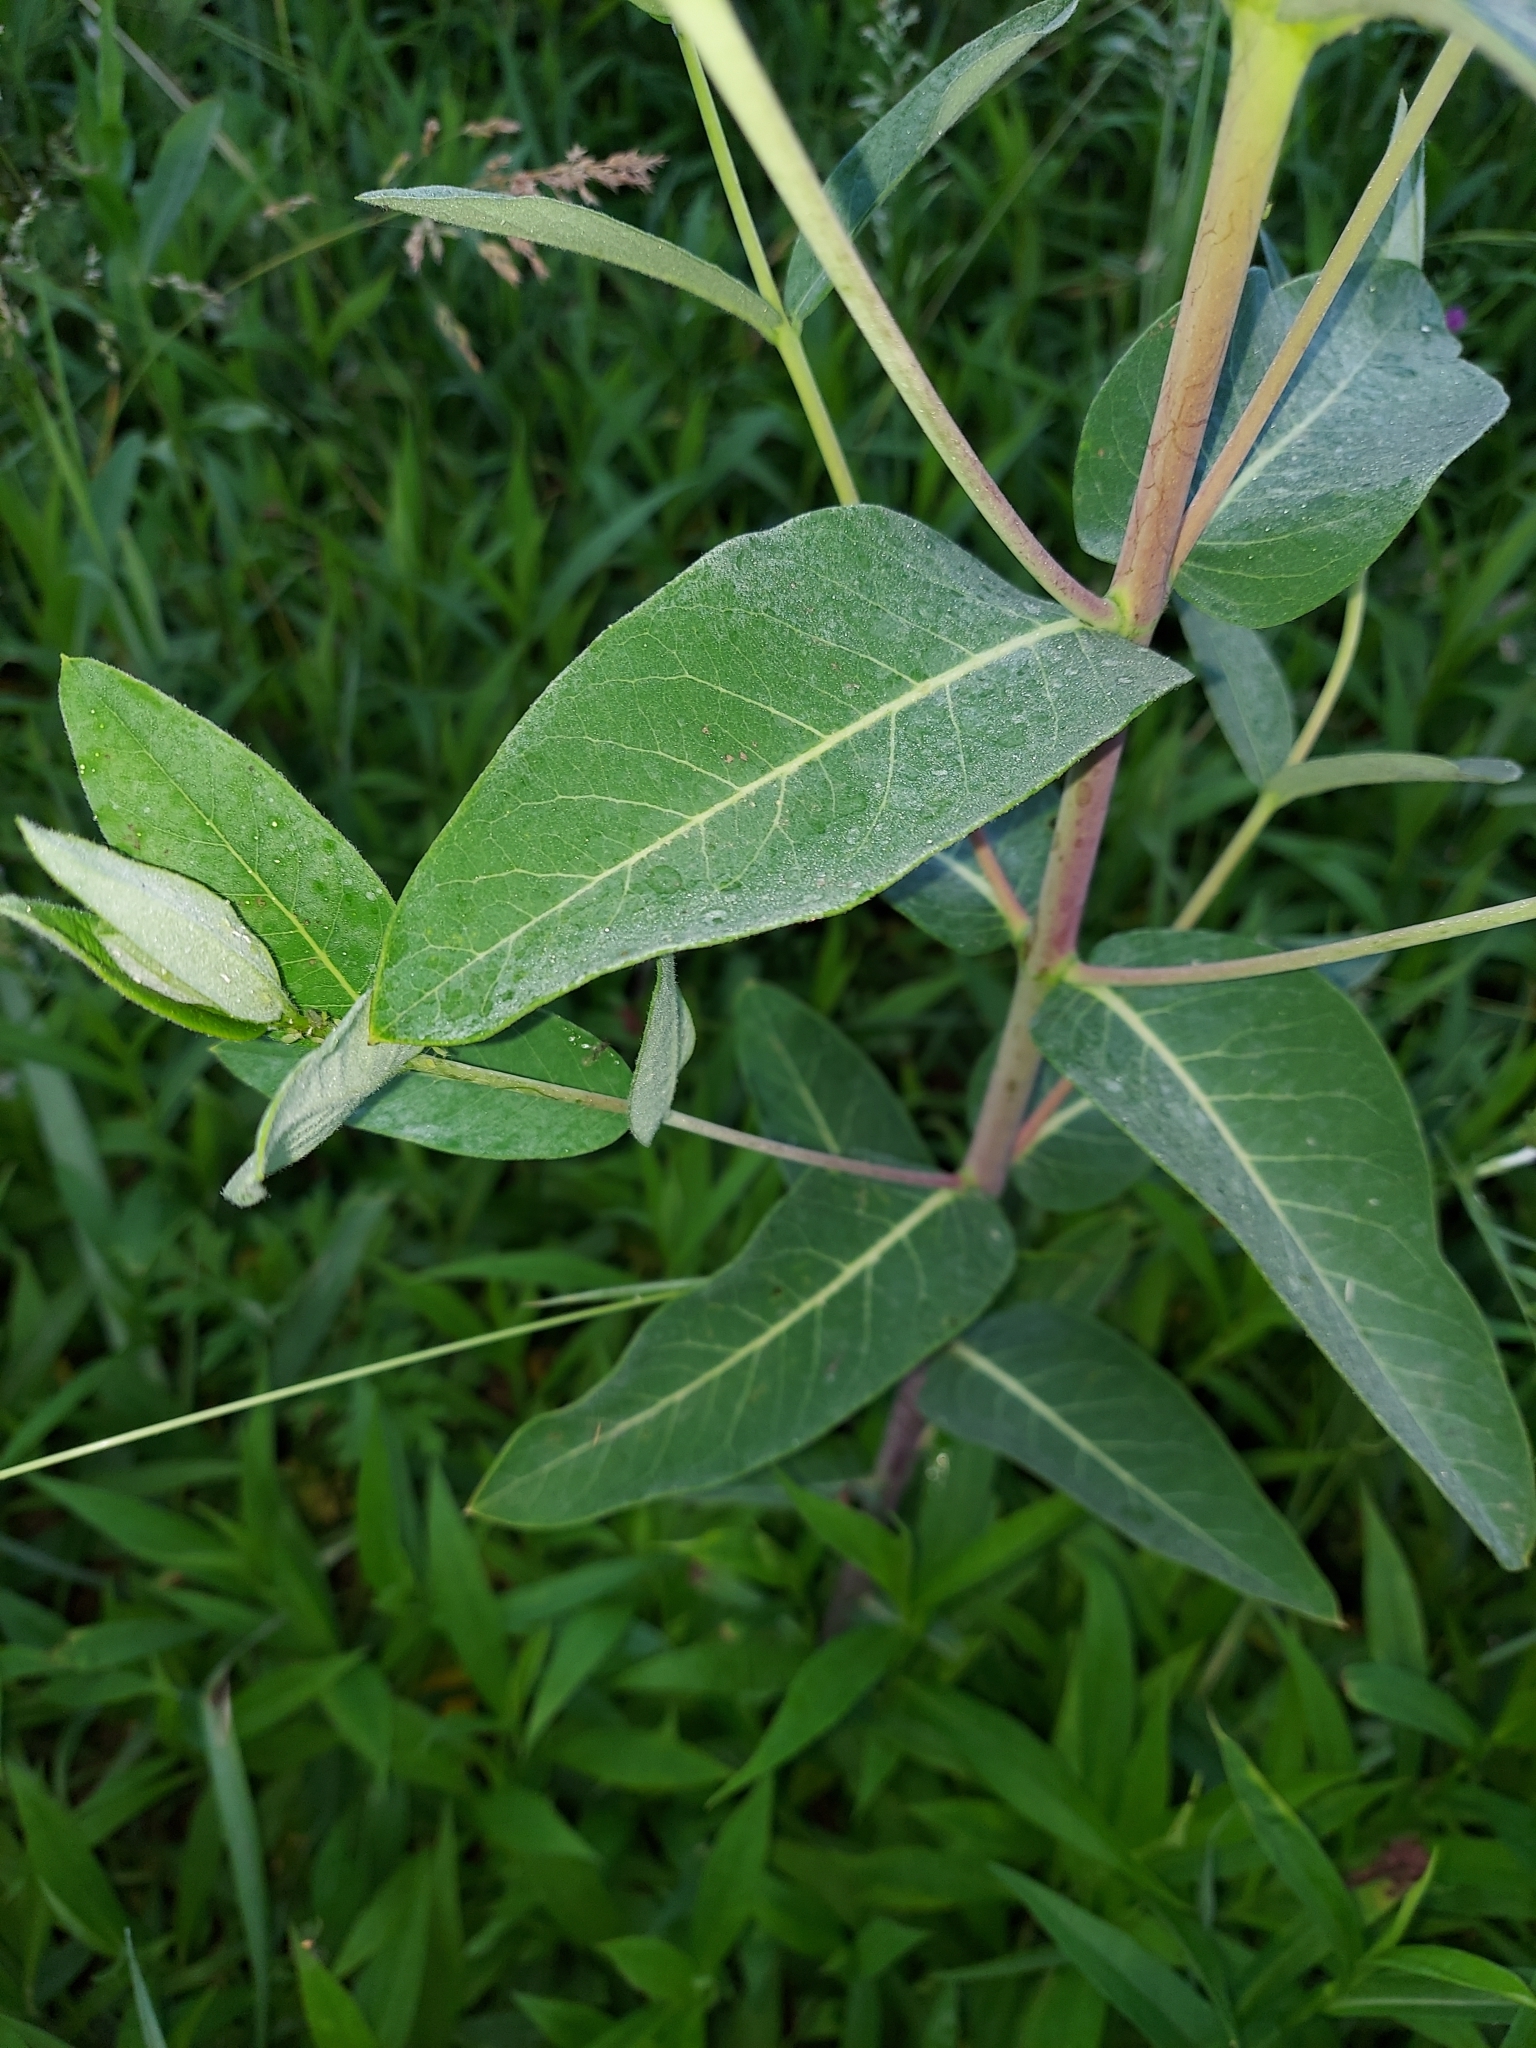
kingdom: Plantae
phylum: Tracheophyta
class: Magnoliopsida
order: Gentianales
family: Apocynaceae
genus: Apocynum
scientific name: Apocynum cannabinum
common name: Hemp dogbane
